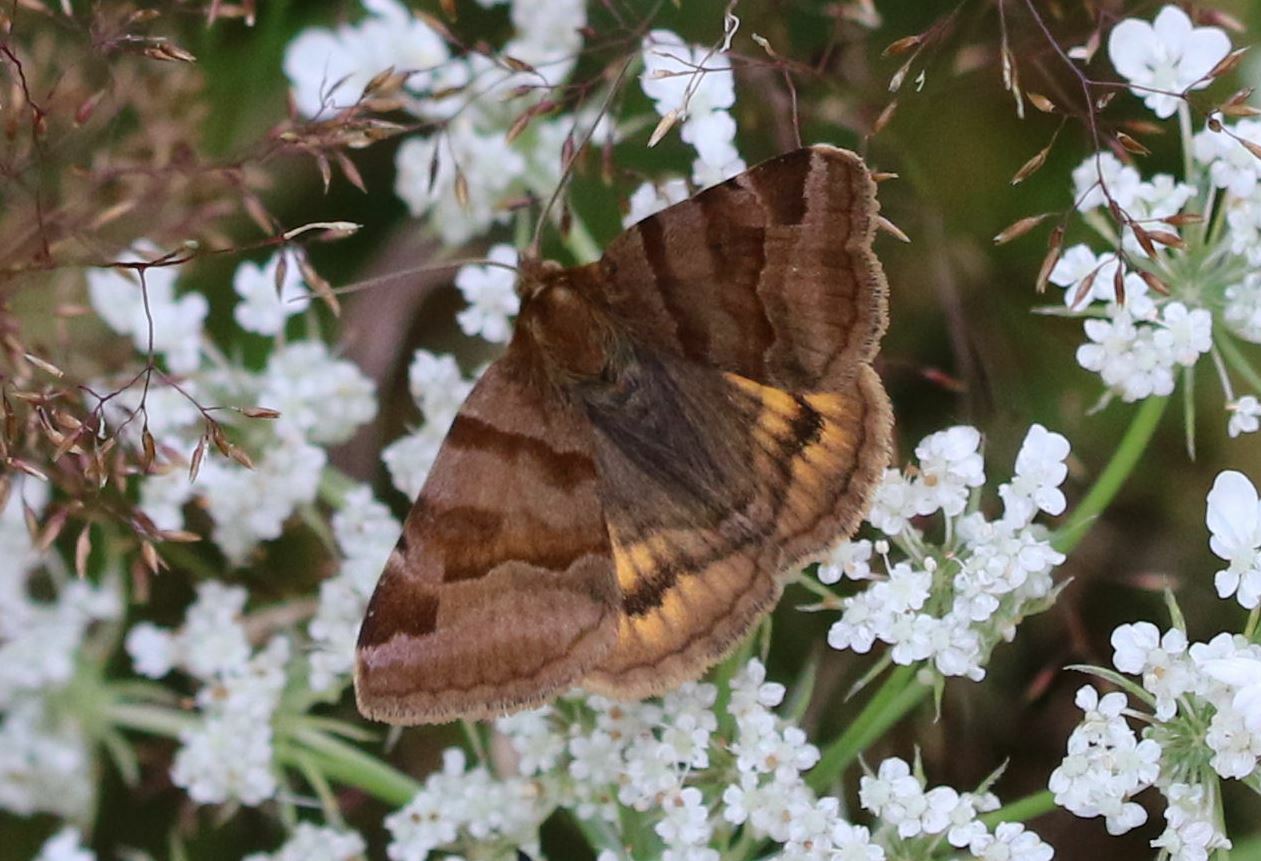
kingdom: Animalia
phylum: Arthropoda
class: Insecta
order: Lepidoptera
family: Erebidae
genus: Euclidia
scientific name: Euclidia glyphica
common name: Burnet companion
